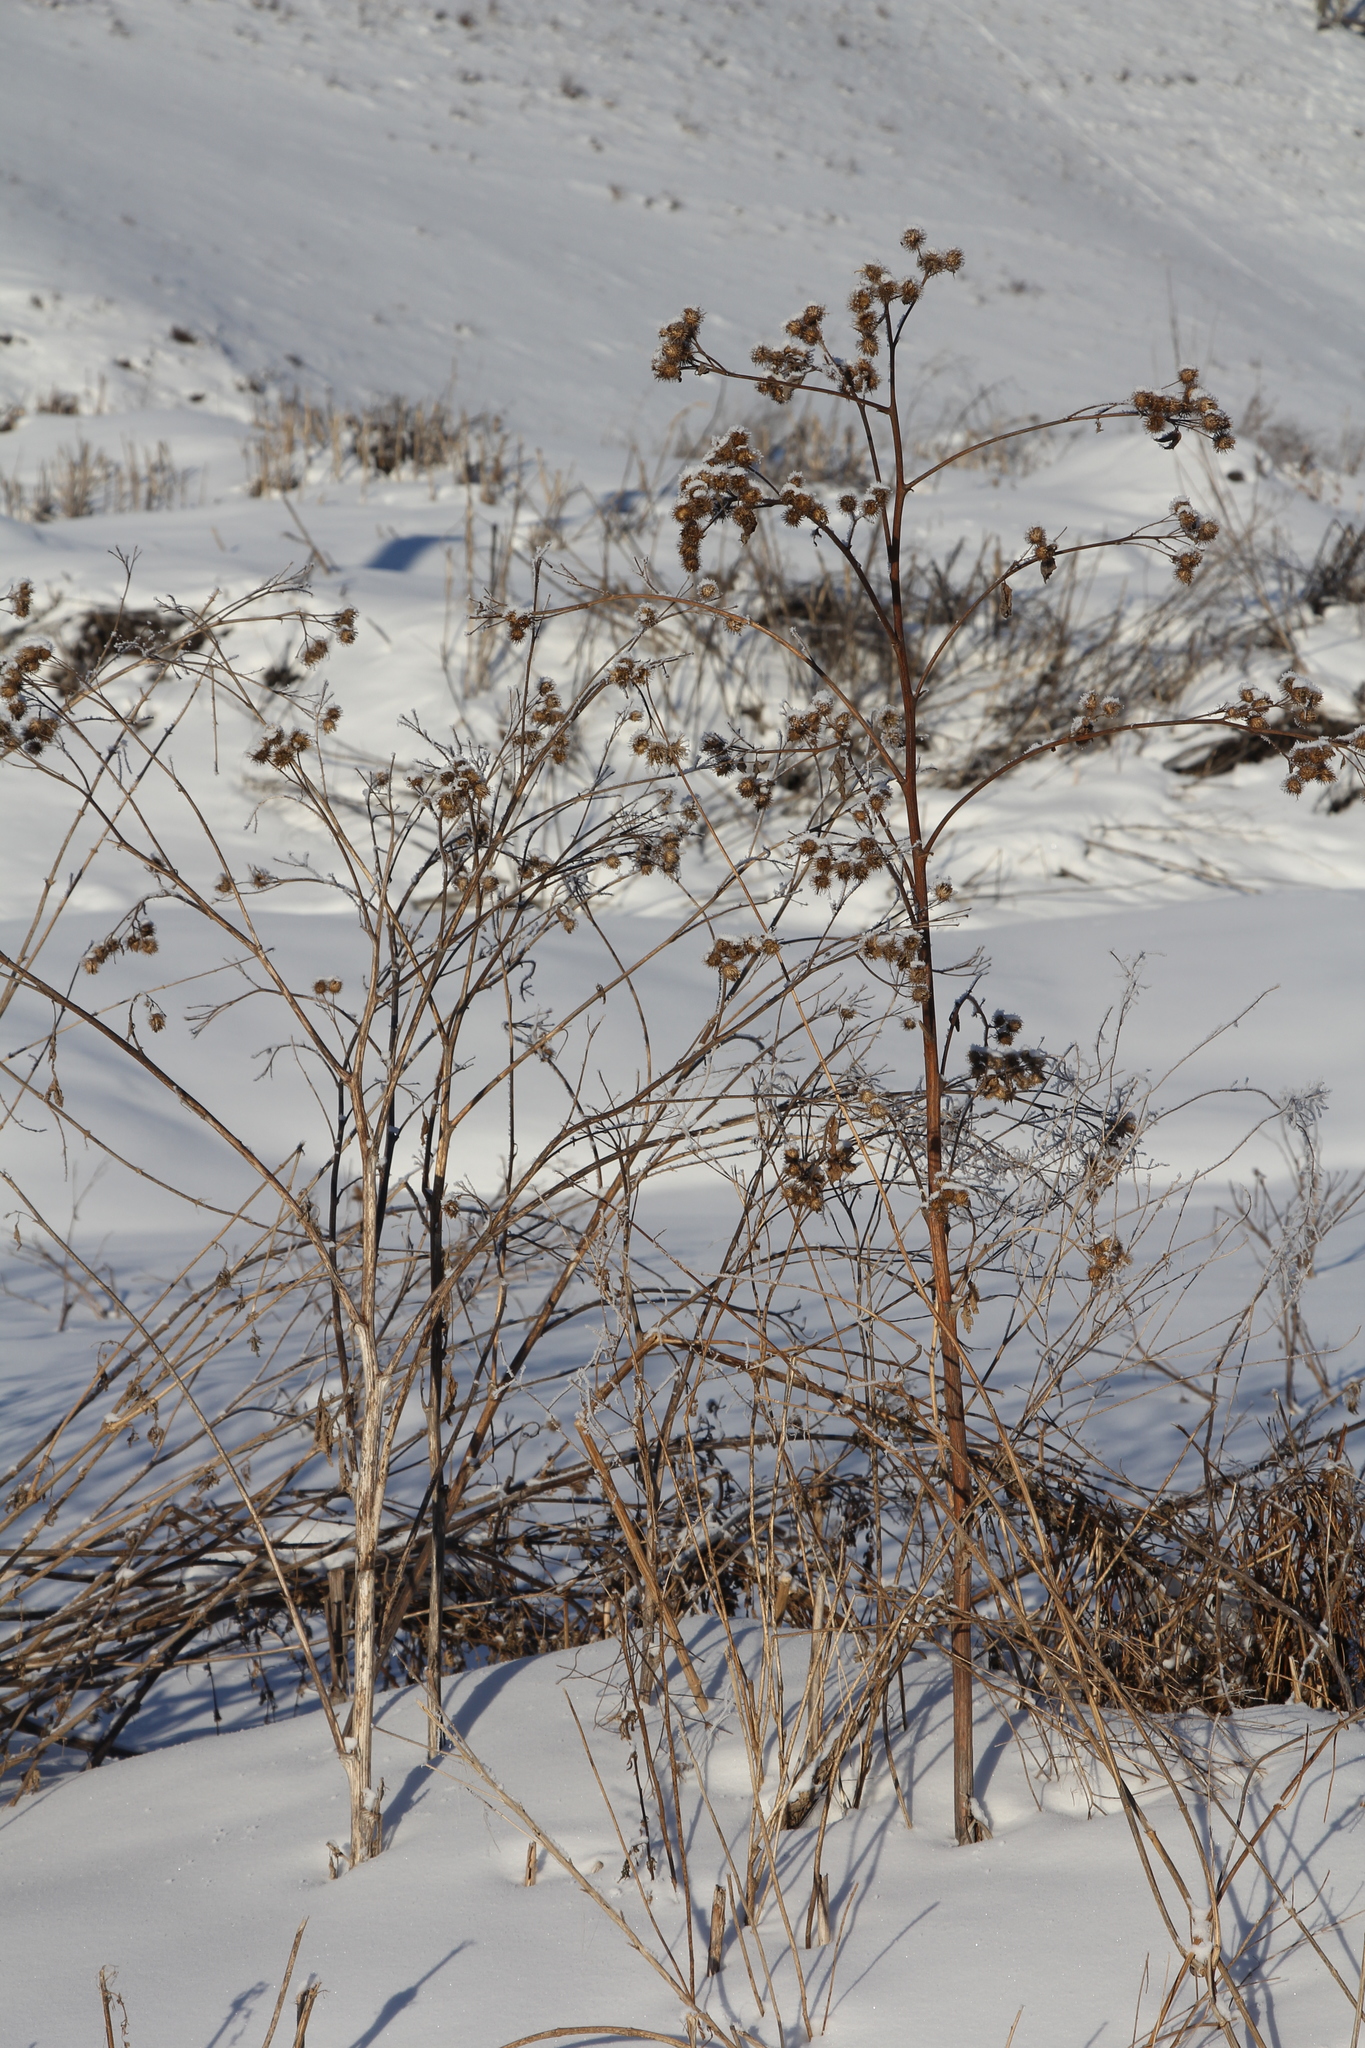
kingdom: Plantae
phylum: Tracheophyta
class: Magnoliopsida
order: Asterales
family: Asteraceae
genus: Arctium
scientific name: Arctium tomentosum
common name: Woolly burdock
